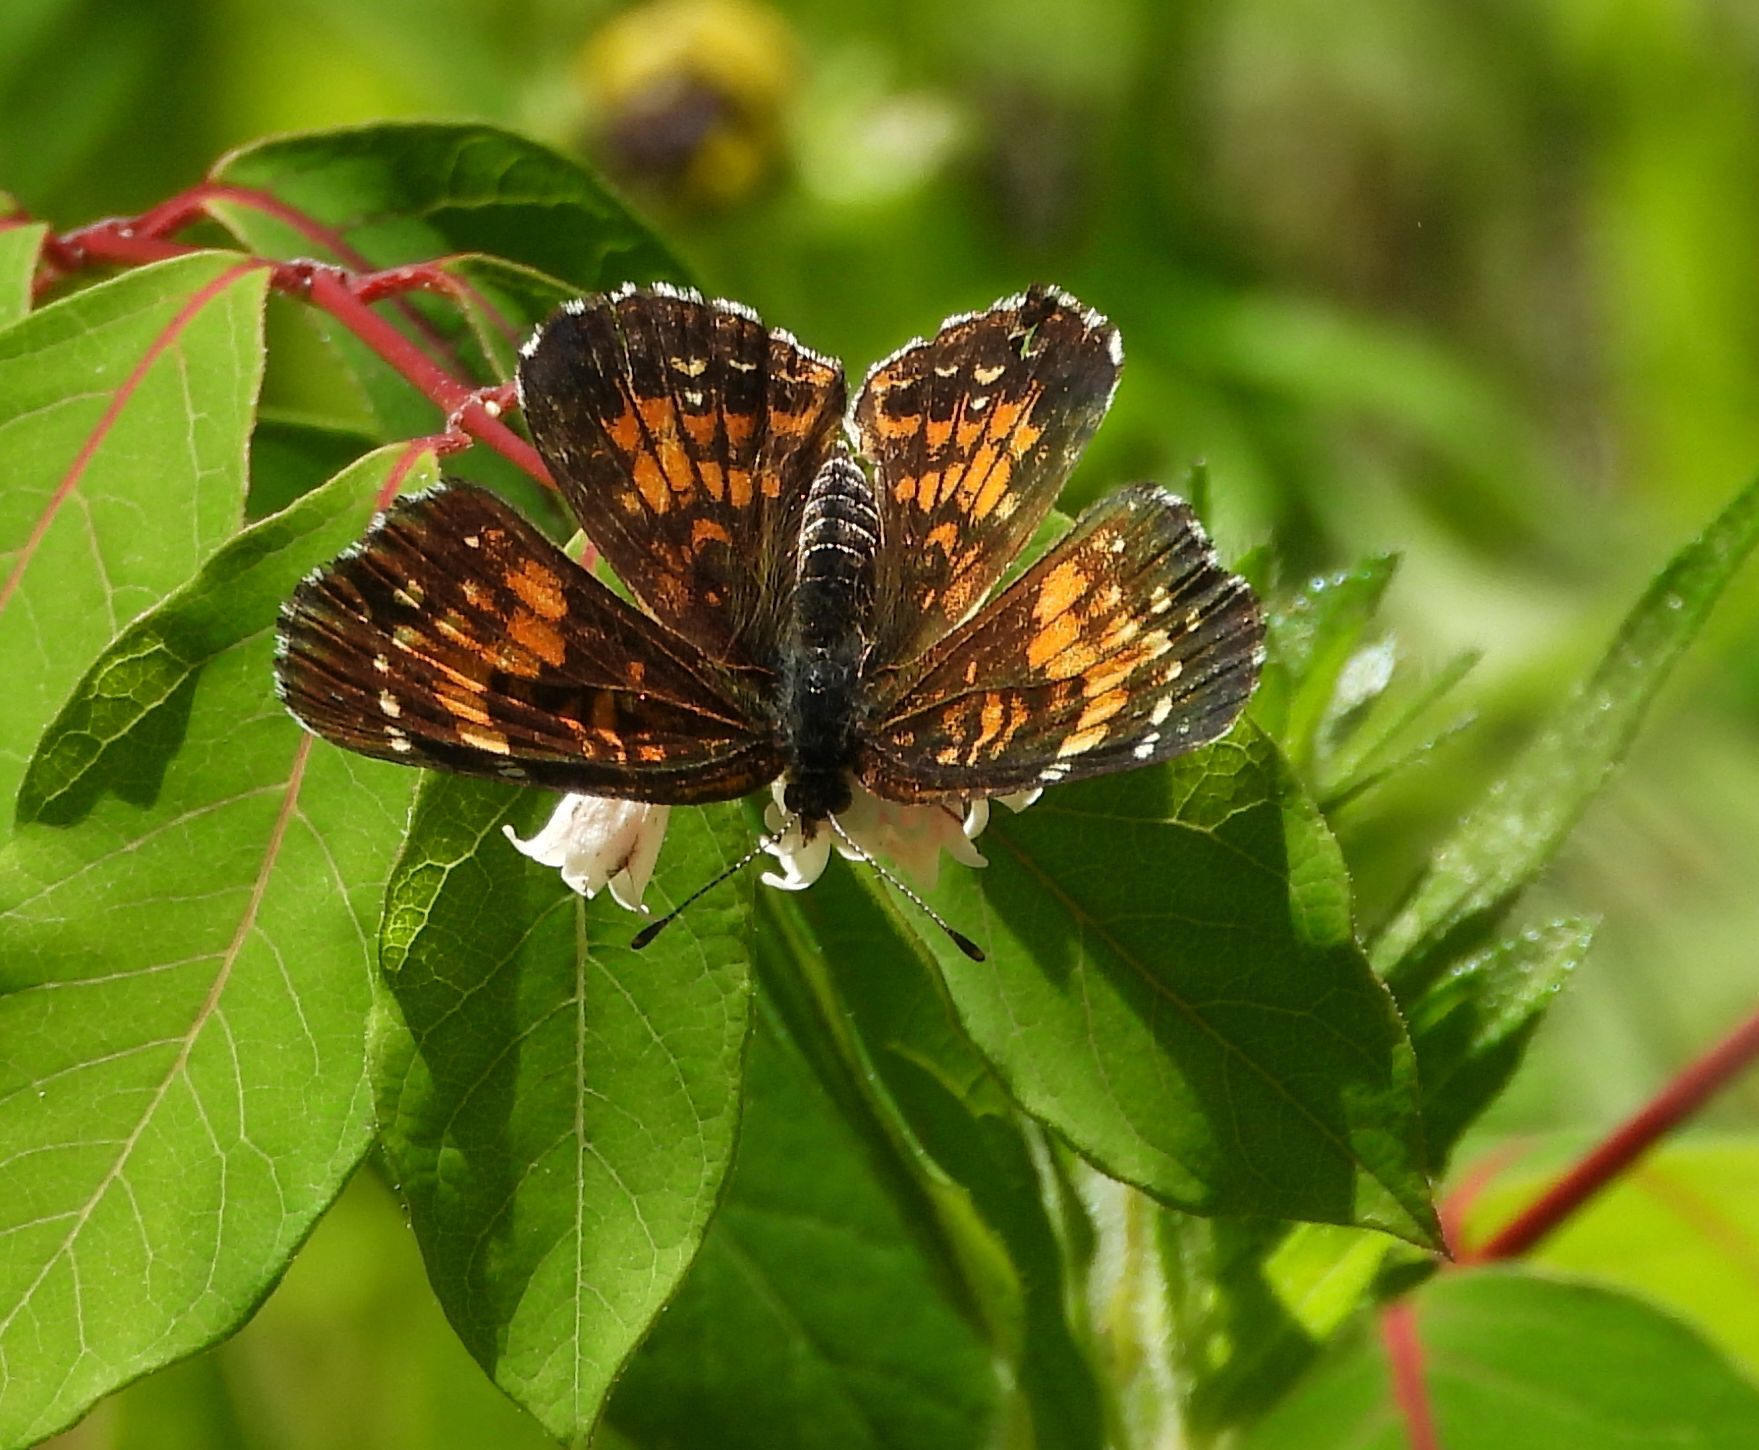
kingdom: Animalia
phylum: Arthropoda
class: Insecta
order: Lepidoptera
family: Nymphalidae
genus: Chlosyne
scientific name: Chlosyne harrisii
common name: Harris's checkerspot
